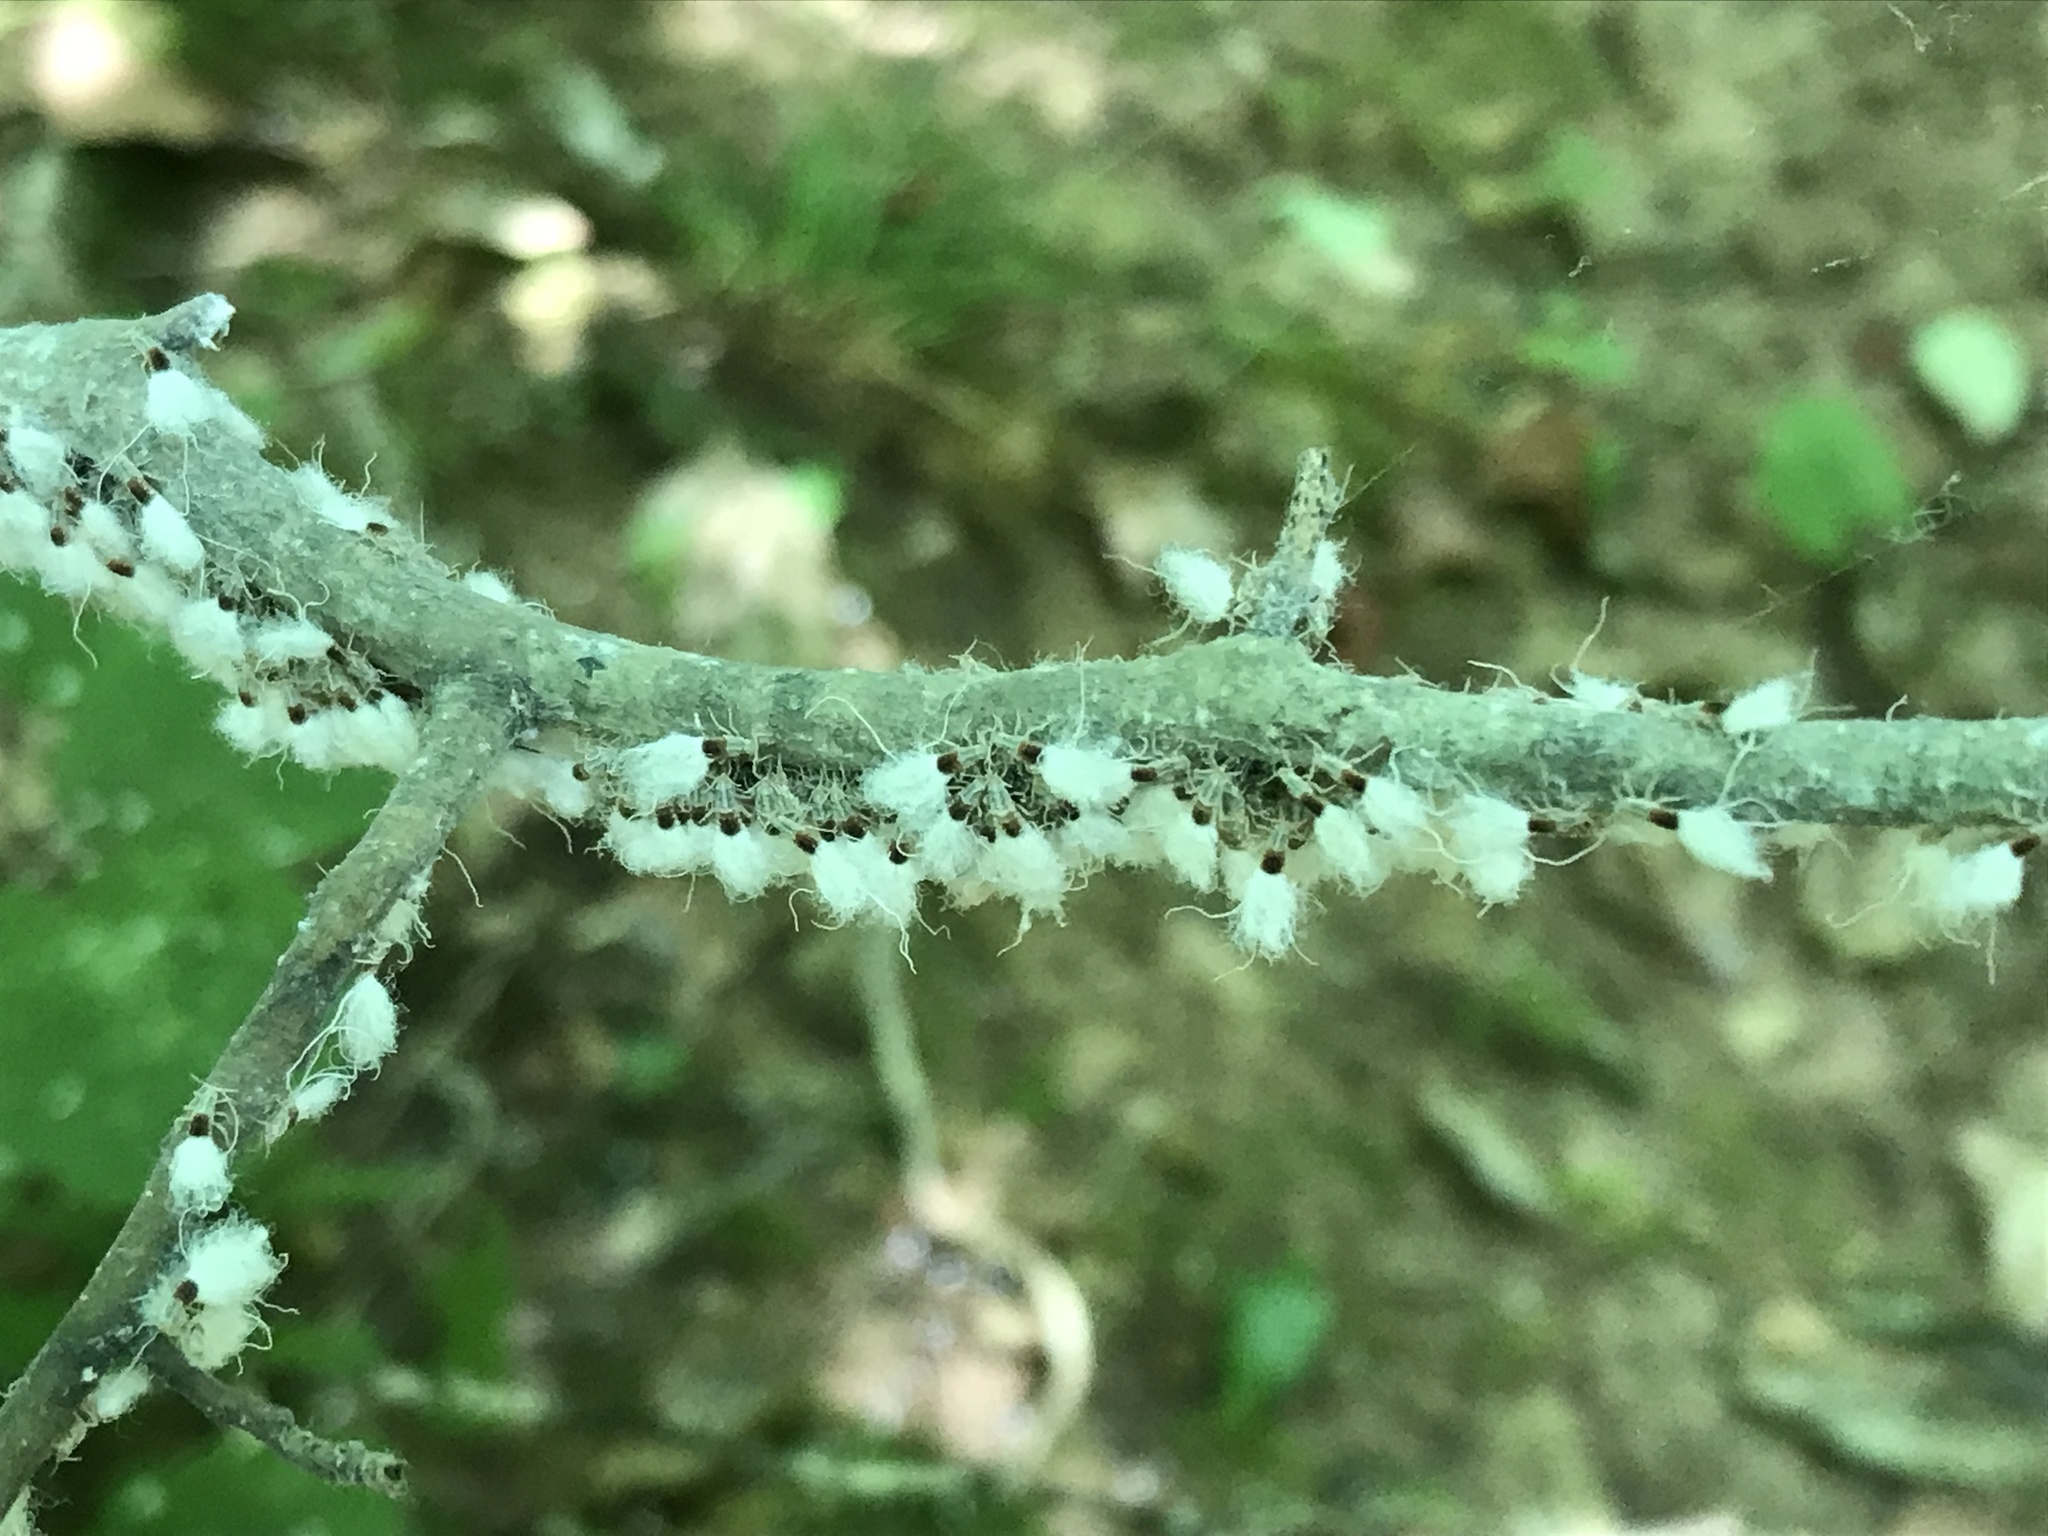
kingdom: Animalia
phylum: Arthropoda
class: Insecta
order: Hemiptera
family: Aphididae
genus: Grylloprociphilus
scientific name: Grylloprociphilus imbricator
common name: Beech blight aphid
